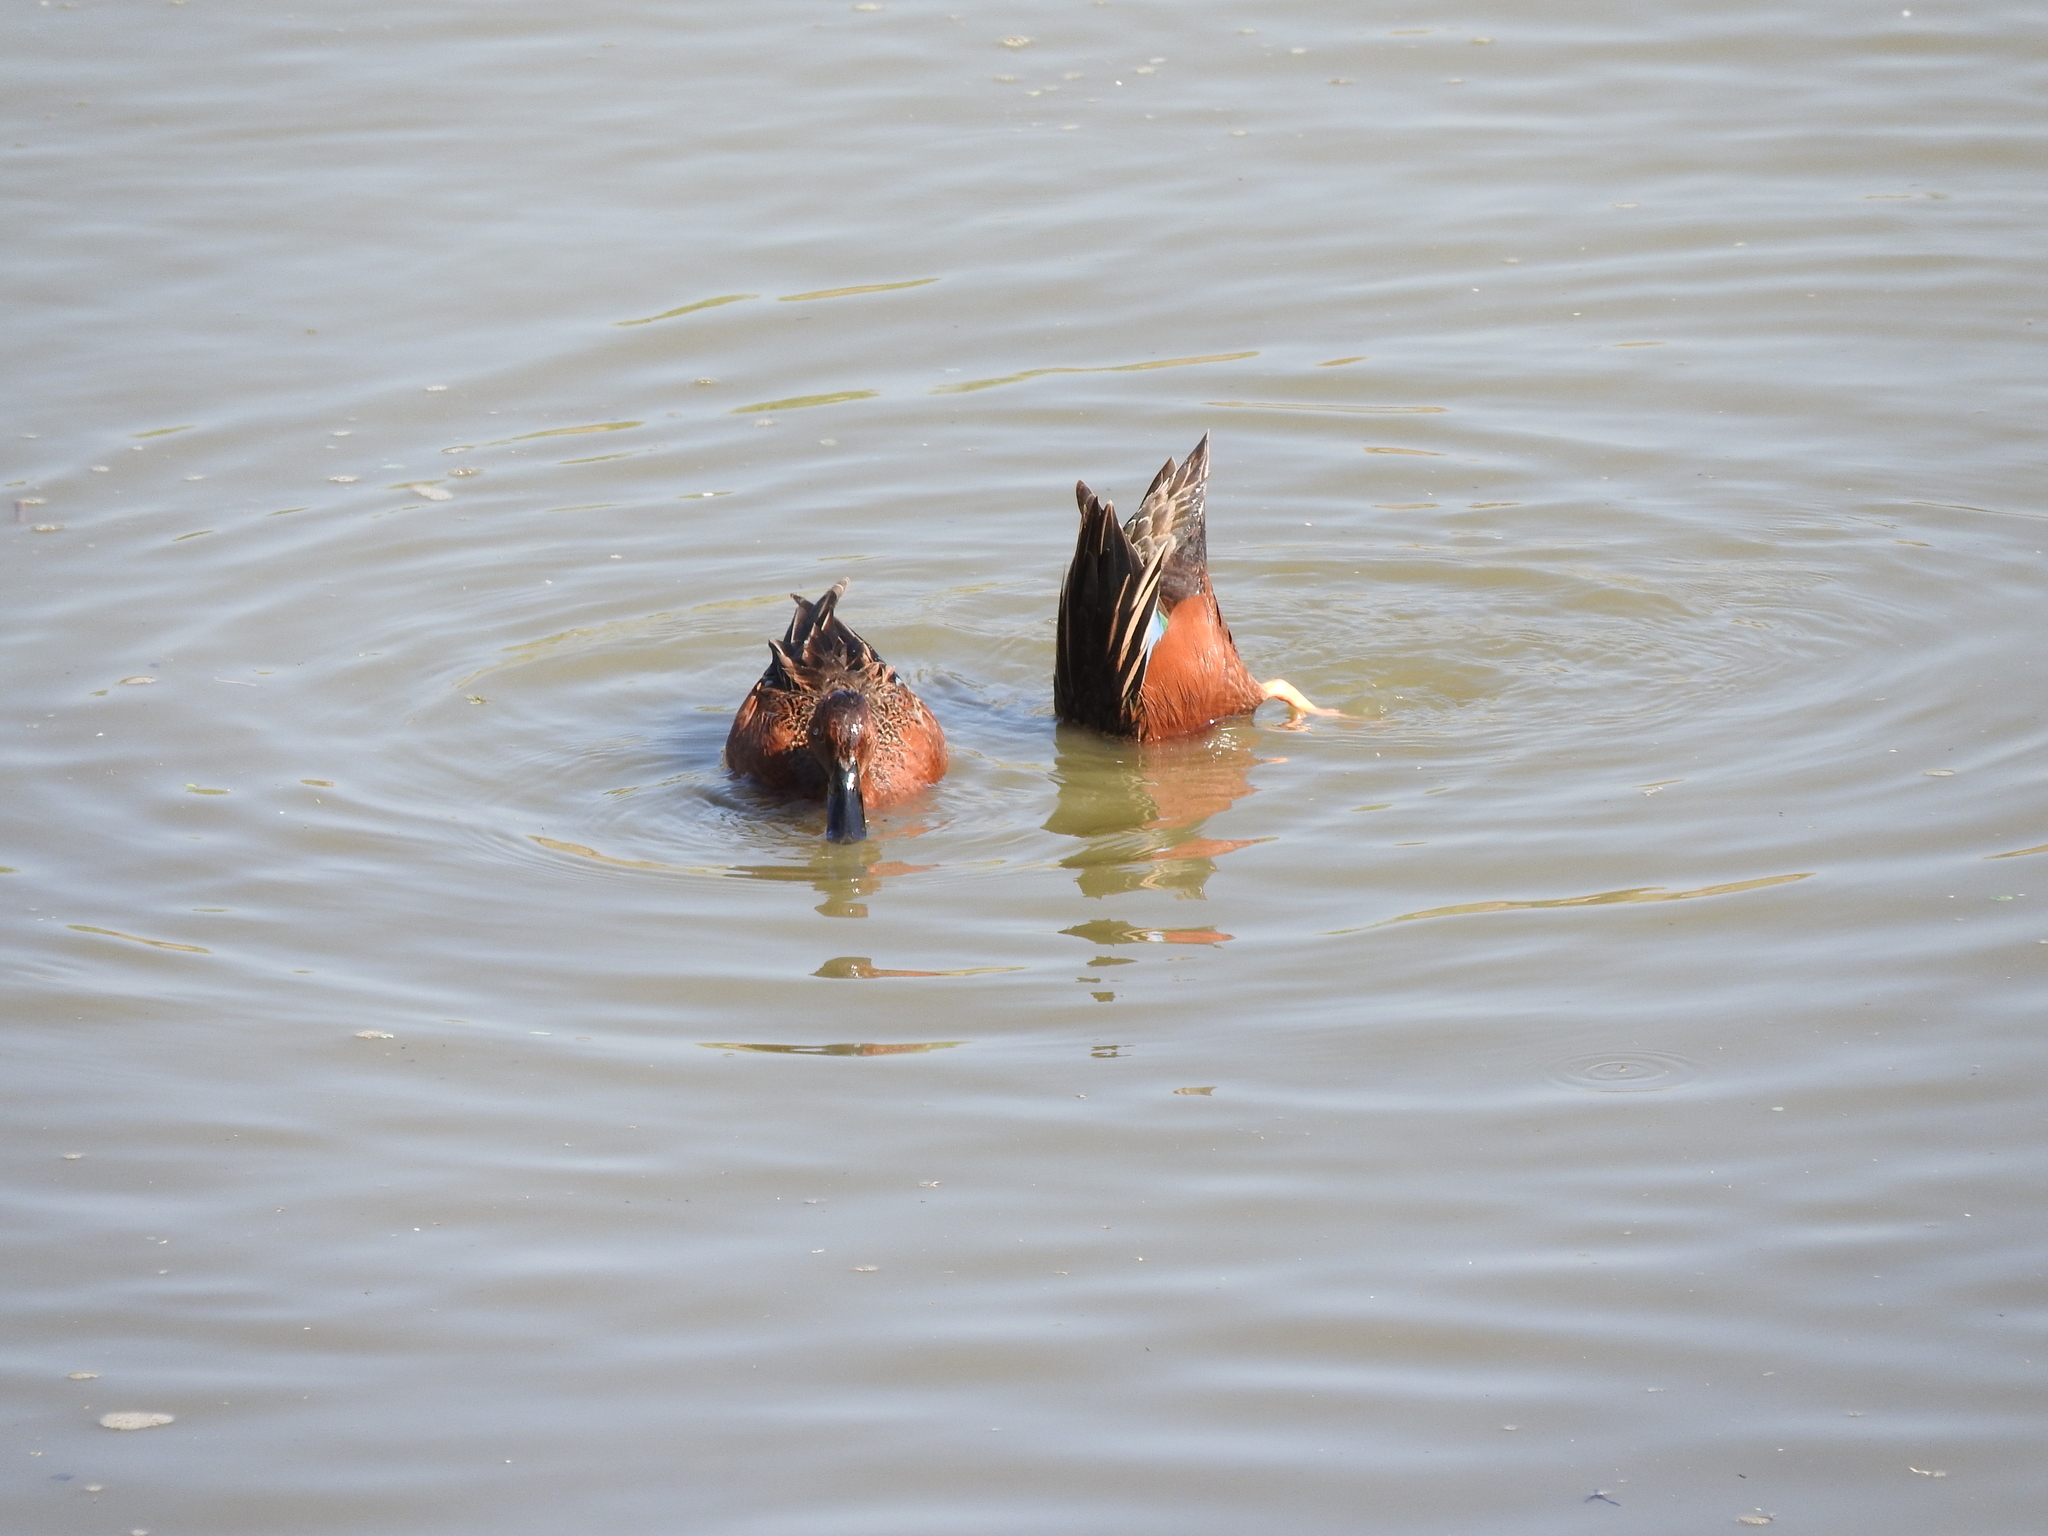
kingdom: Animalia
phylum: Chordata
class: Aves
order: Anseriformes
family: Anatidae
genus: Spatula
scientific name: Spatula cyanoptera
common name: Cinnamon teal
